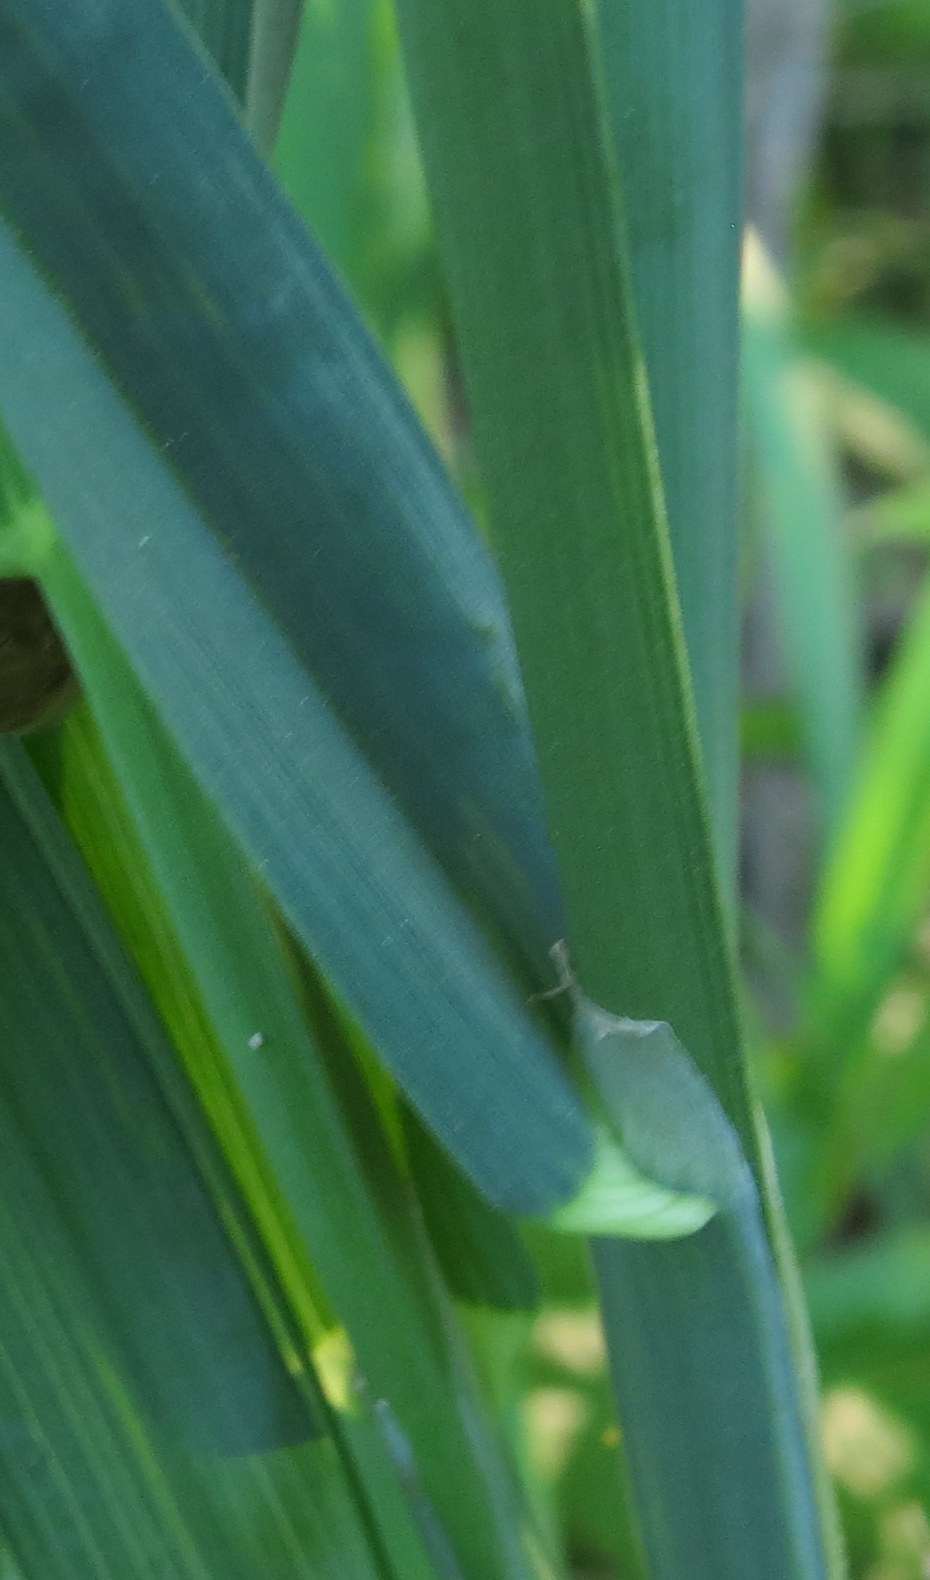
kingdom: Plantae
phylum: Tracheophyta
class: Liliopsida
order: Poales
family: Poaceae
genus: Dactylis
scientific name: Dactylis glomerata
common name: Orchardgrass
